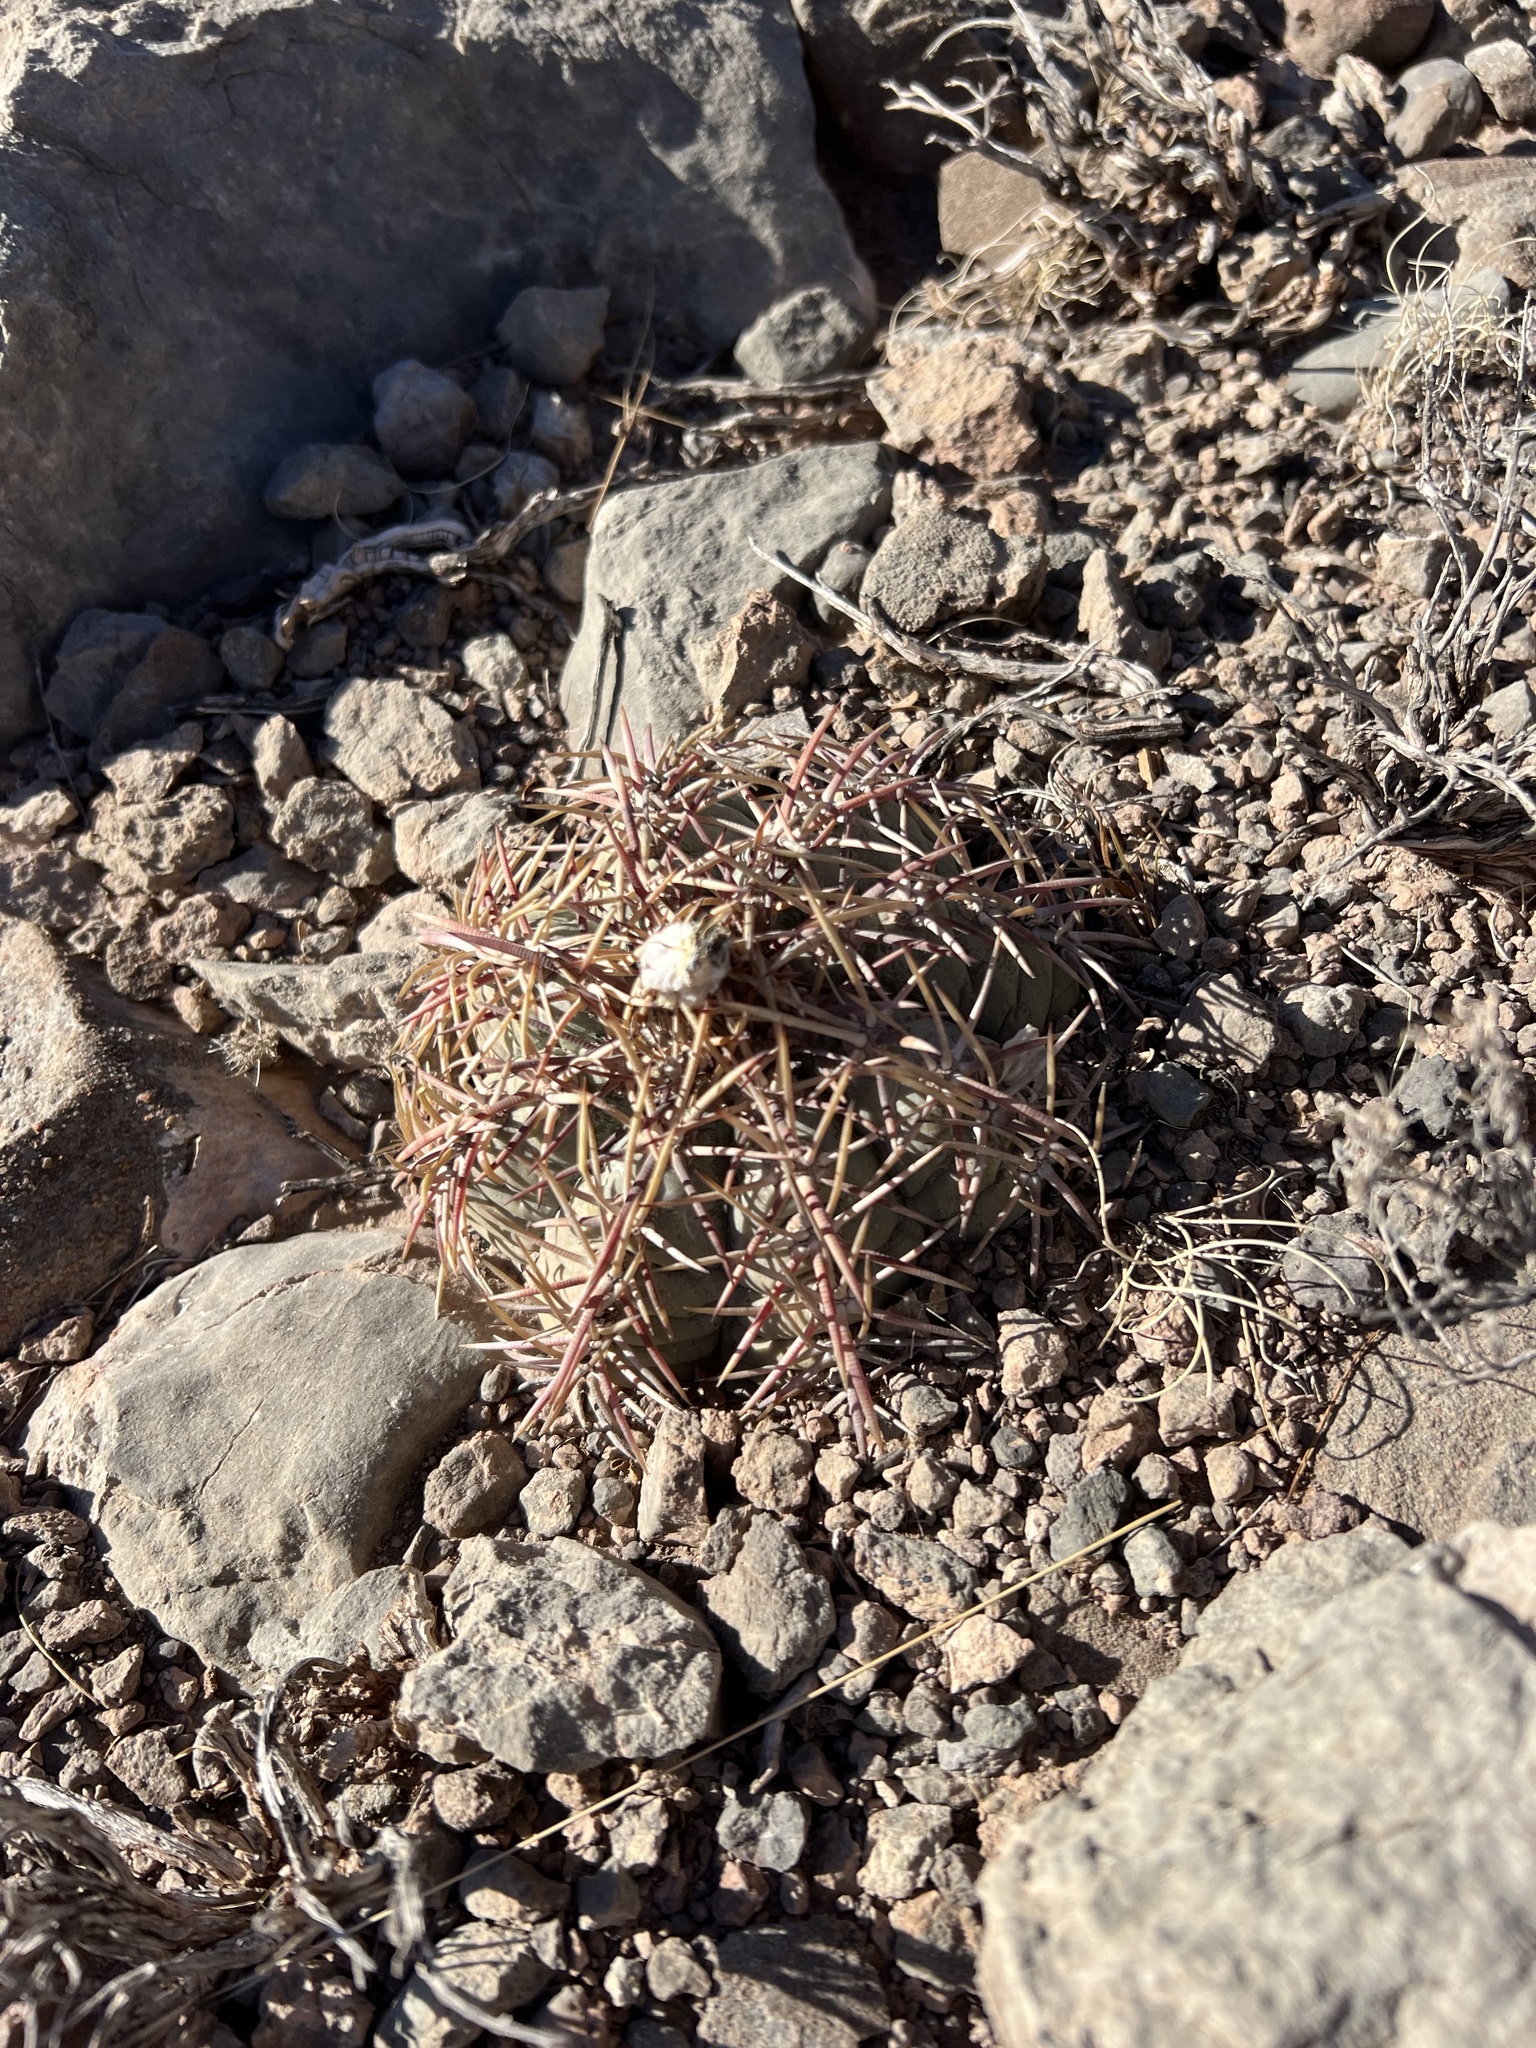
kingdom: Plantae
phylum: Tracheophyta
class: Magnoliopsida
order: Caryophyllales
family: Cactaceae
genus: Echinocactus
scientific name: Echinocactus horizonthalonius
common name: Devilshead
